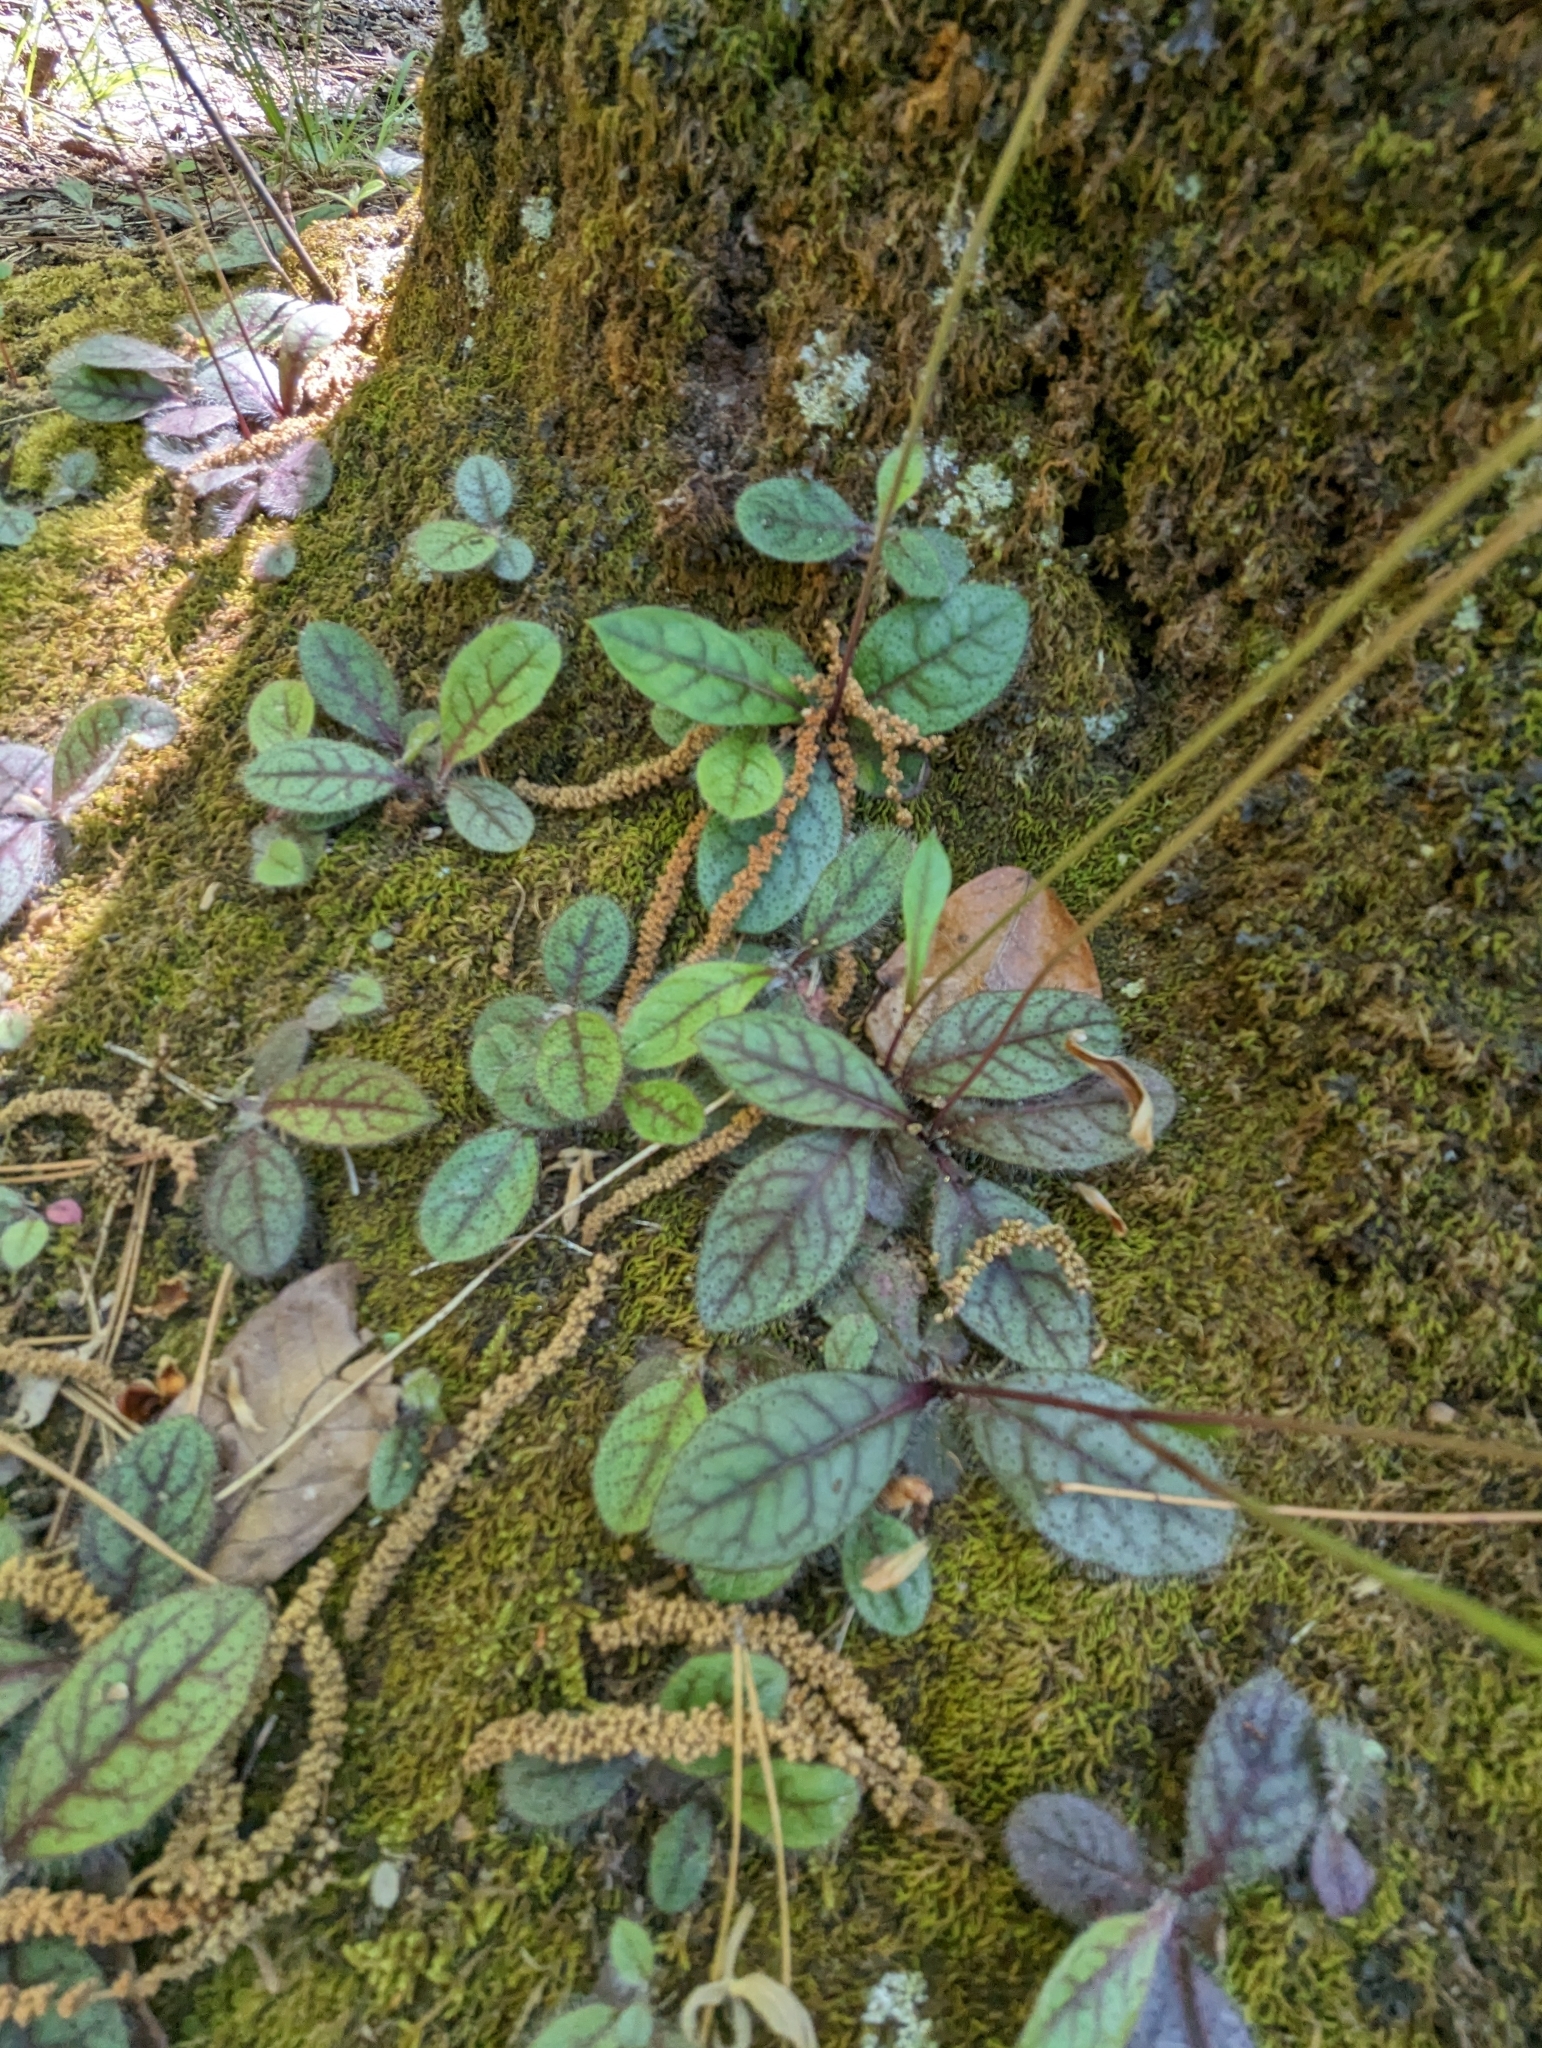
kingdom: Plantae
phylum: Tracheophyta
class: Magnoliopsida
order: Asterales
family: Asteraceae
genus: Hieracium
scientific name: Hieracium venosum
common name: Rattlesnake hawkweed
